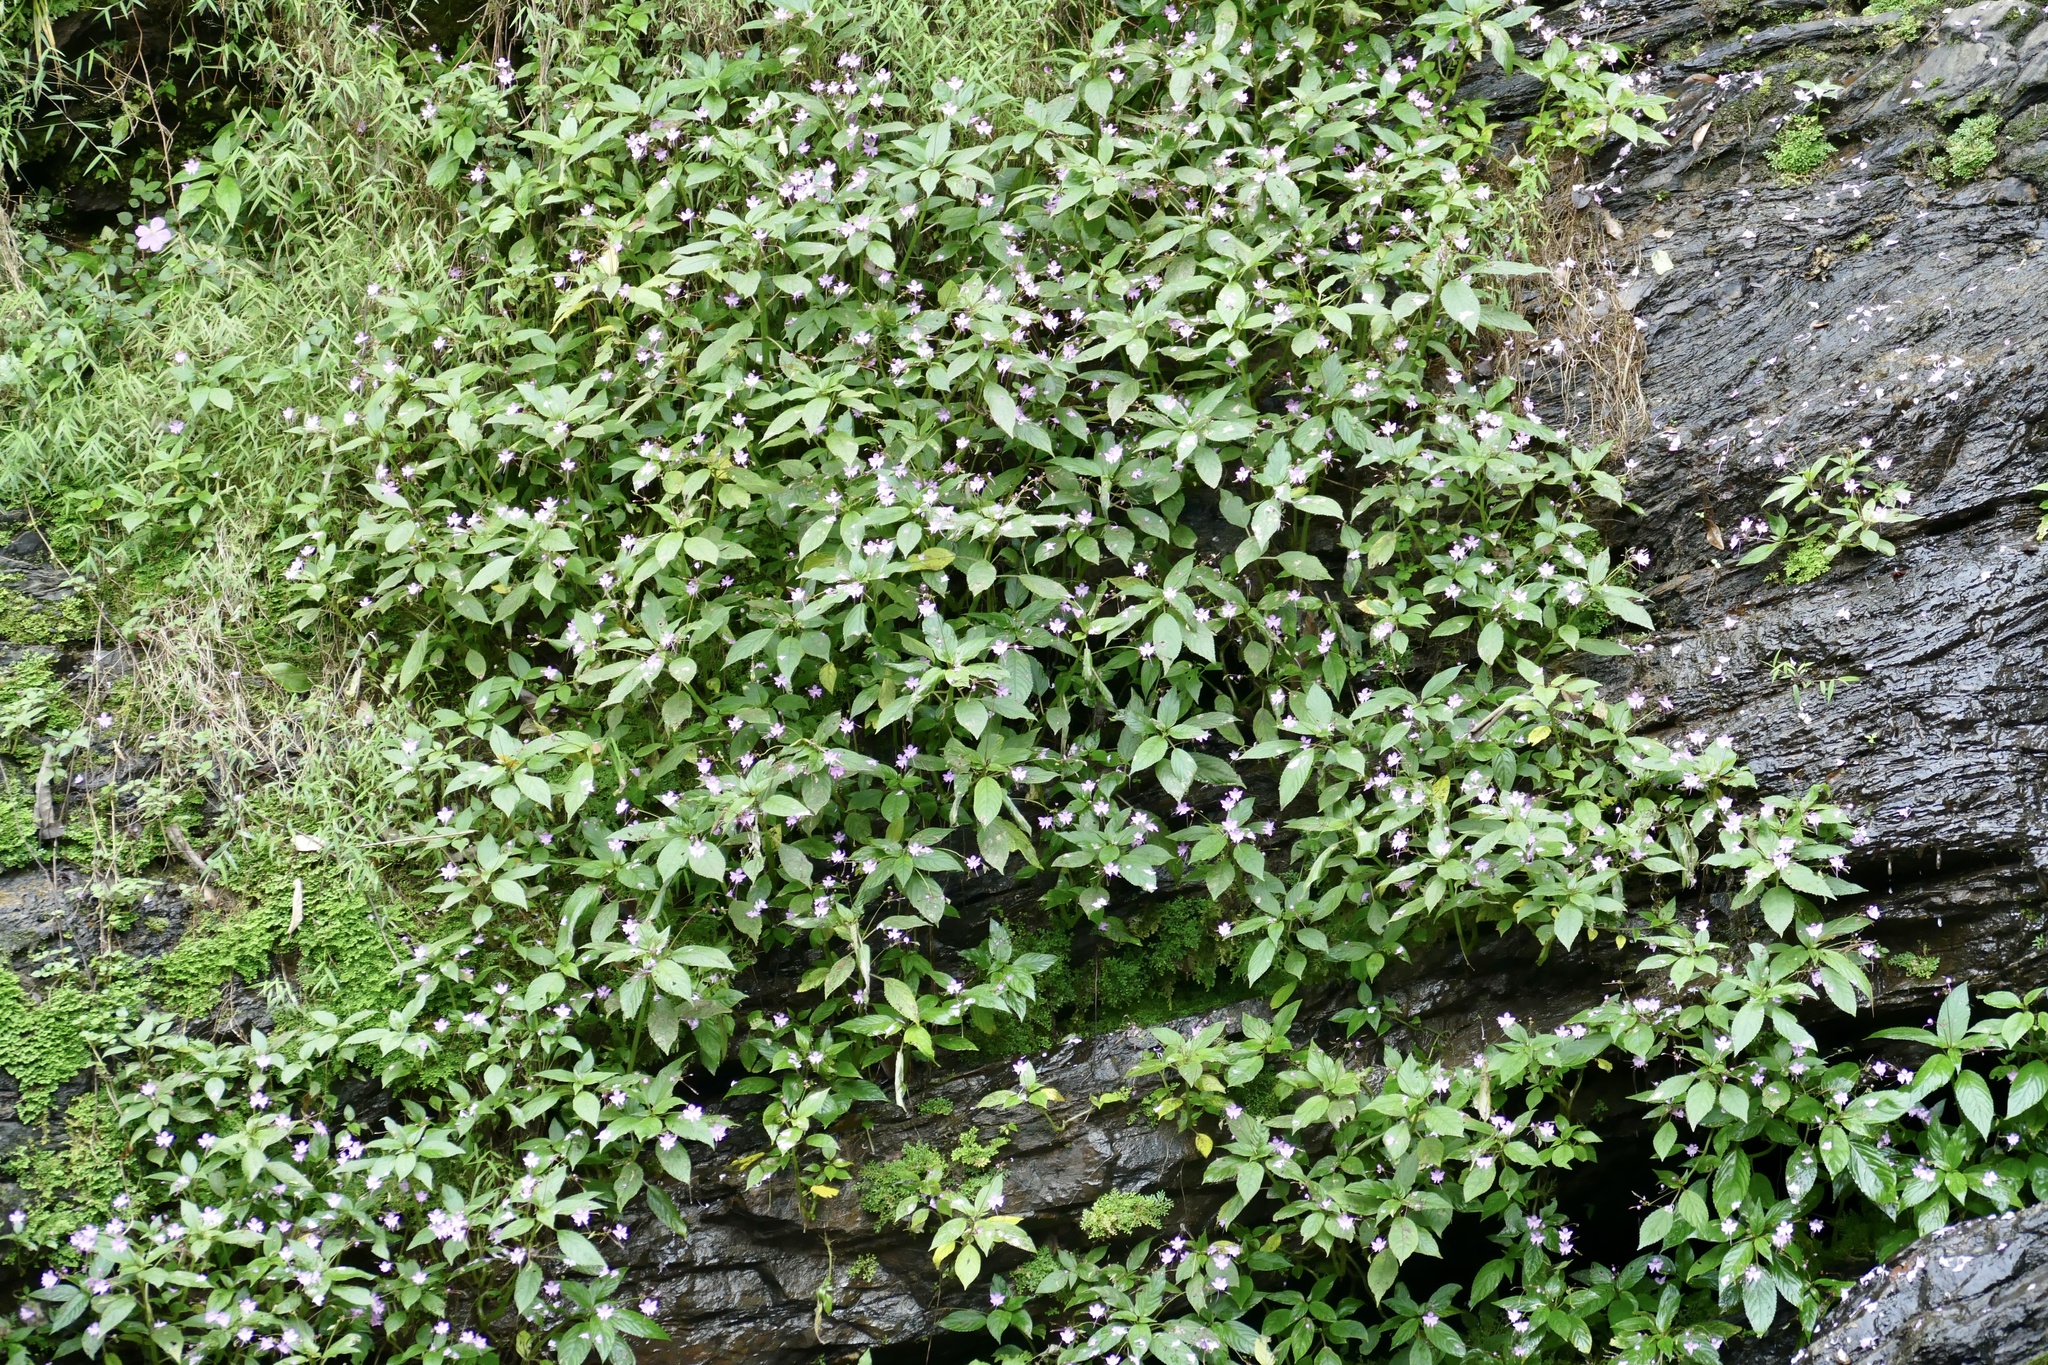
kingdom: Plantae
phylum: Tracheophyta
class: Magnoliopsida
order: Ericales
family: Balsaminaceae
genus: Impatiens
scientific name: Impatiens kamerunensis
